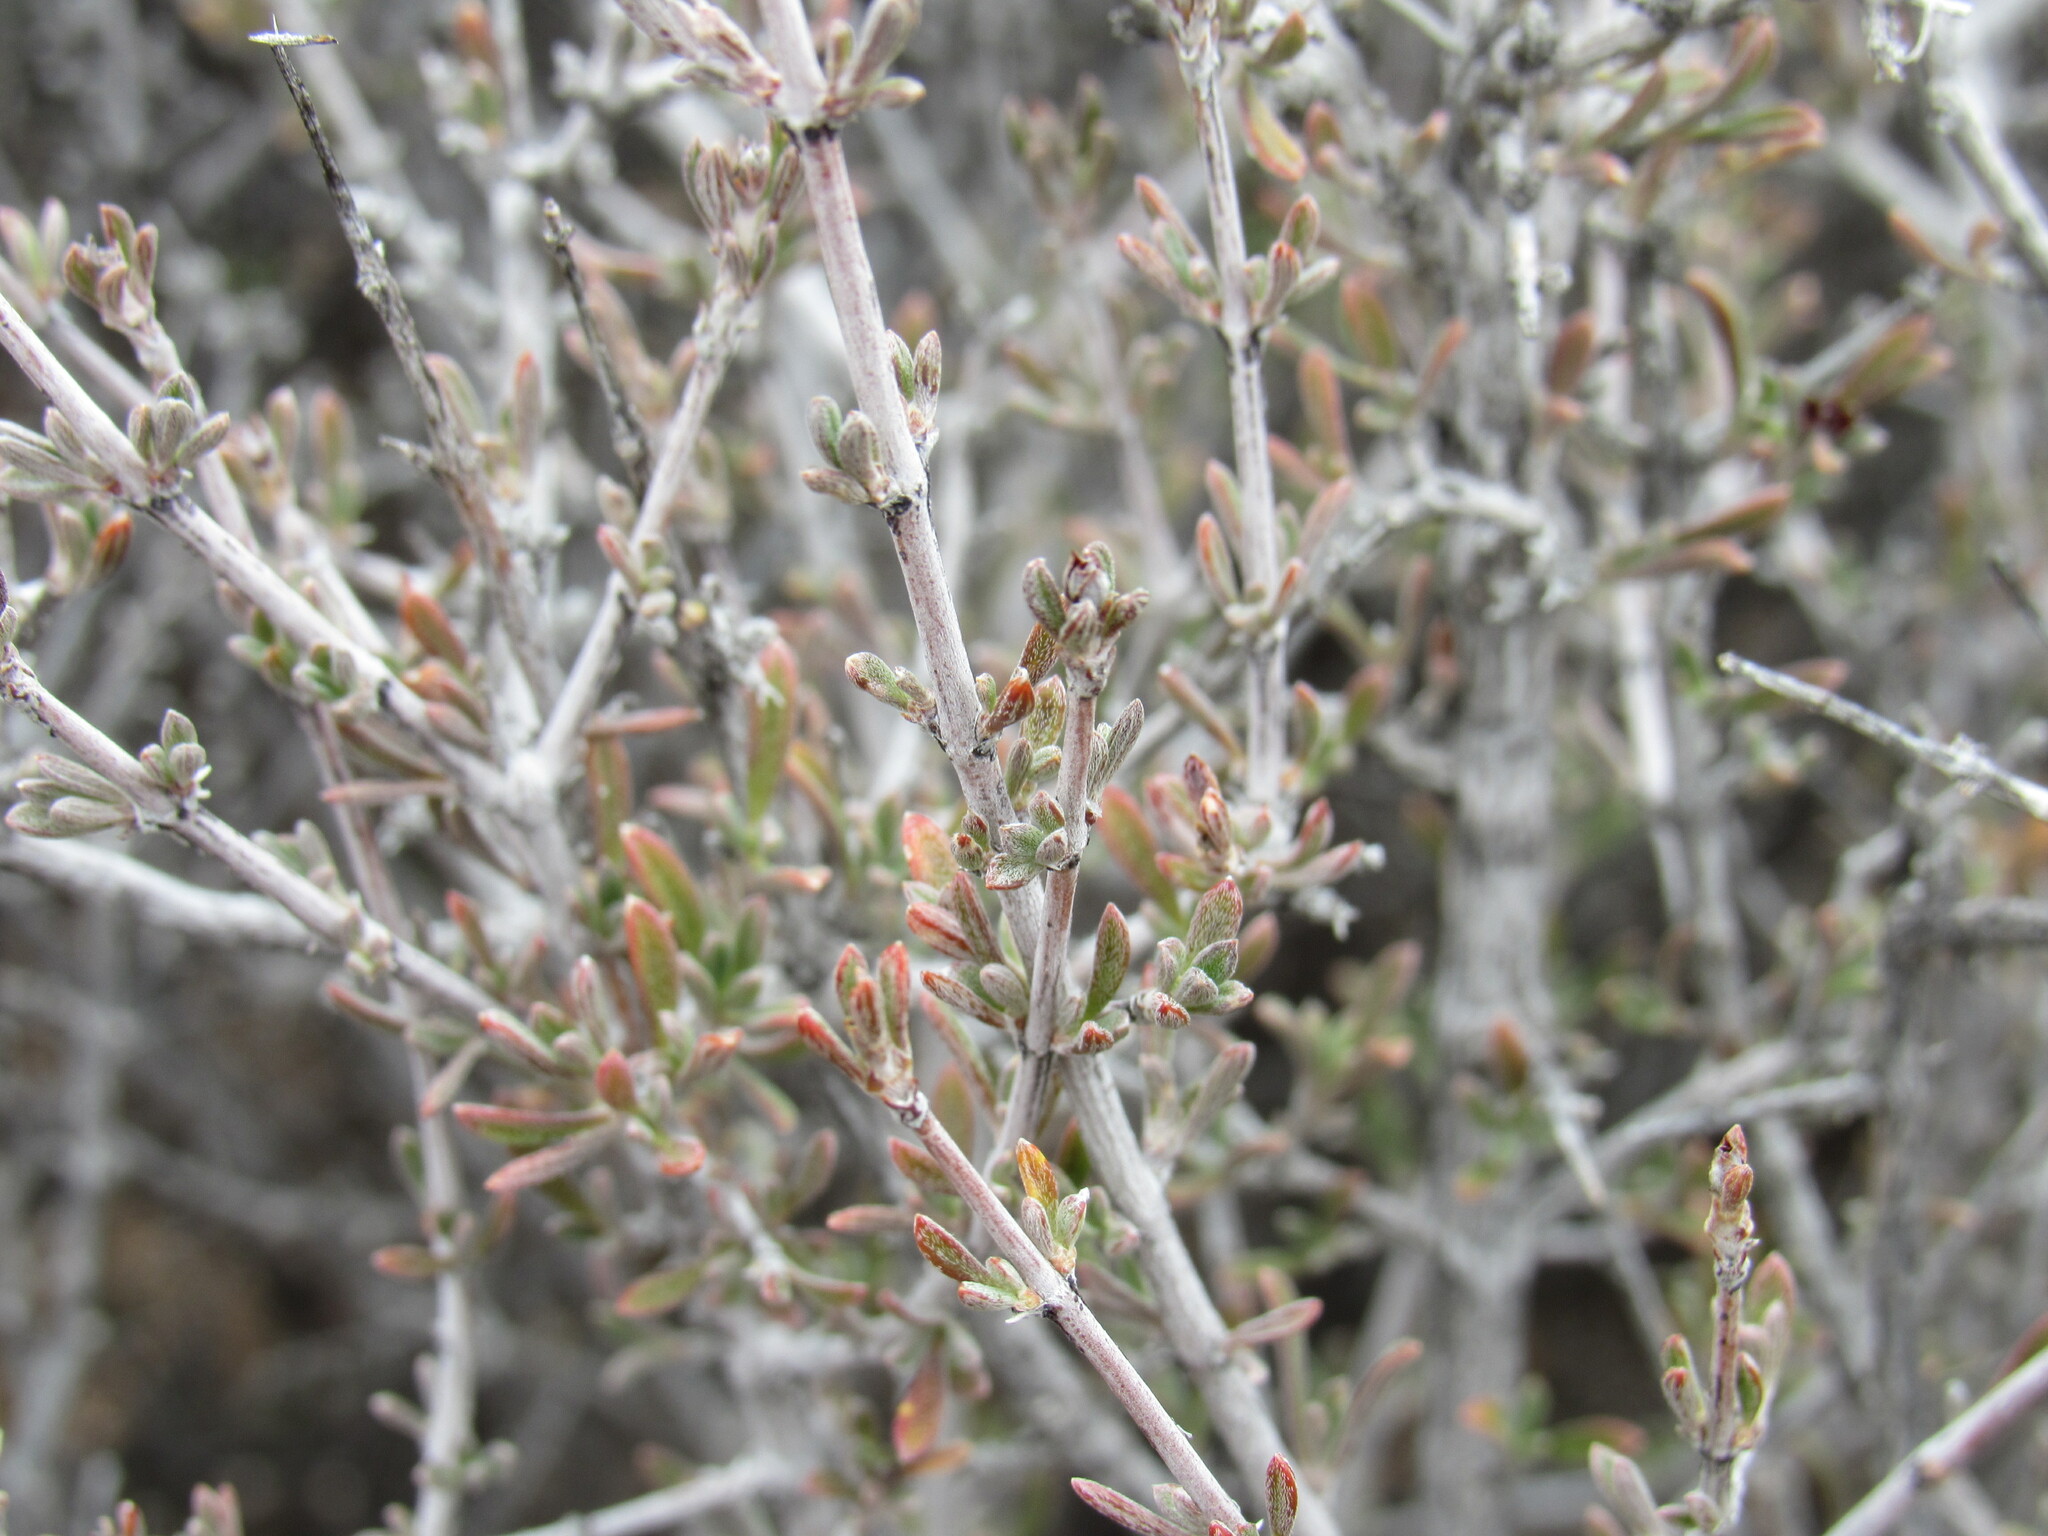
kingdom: Plantae
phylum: Tracheophyta
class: Magnoliopsida
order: Rosales
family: Rosaceae
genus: Coleogyne
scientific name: Coleogyne ramosissima
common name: Blackbrush
